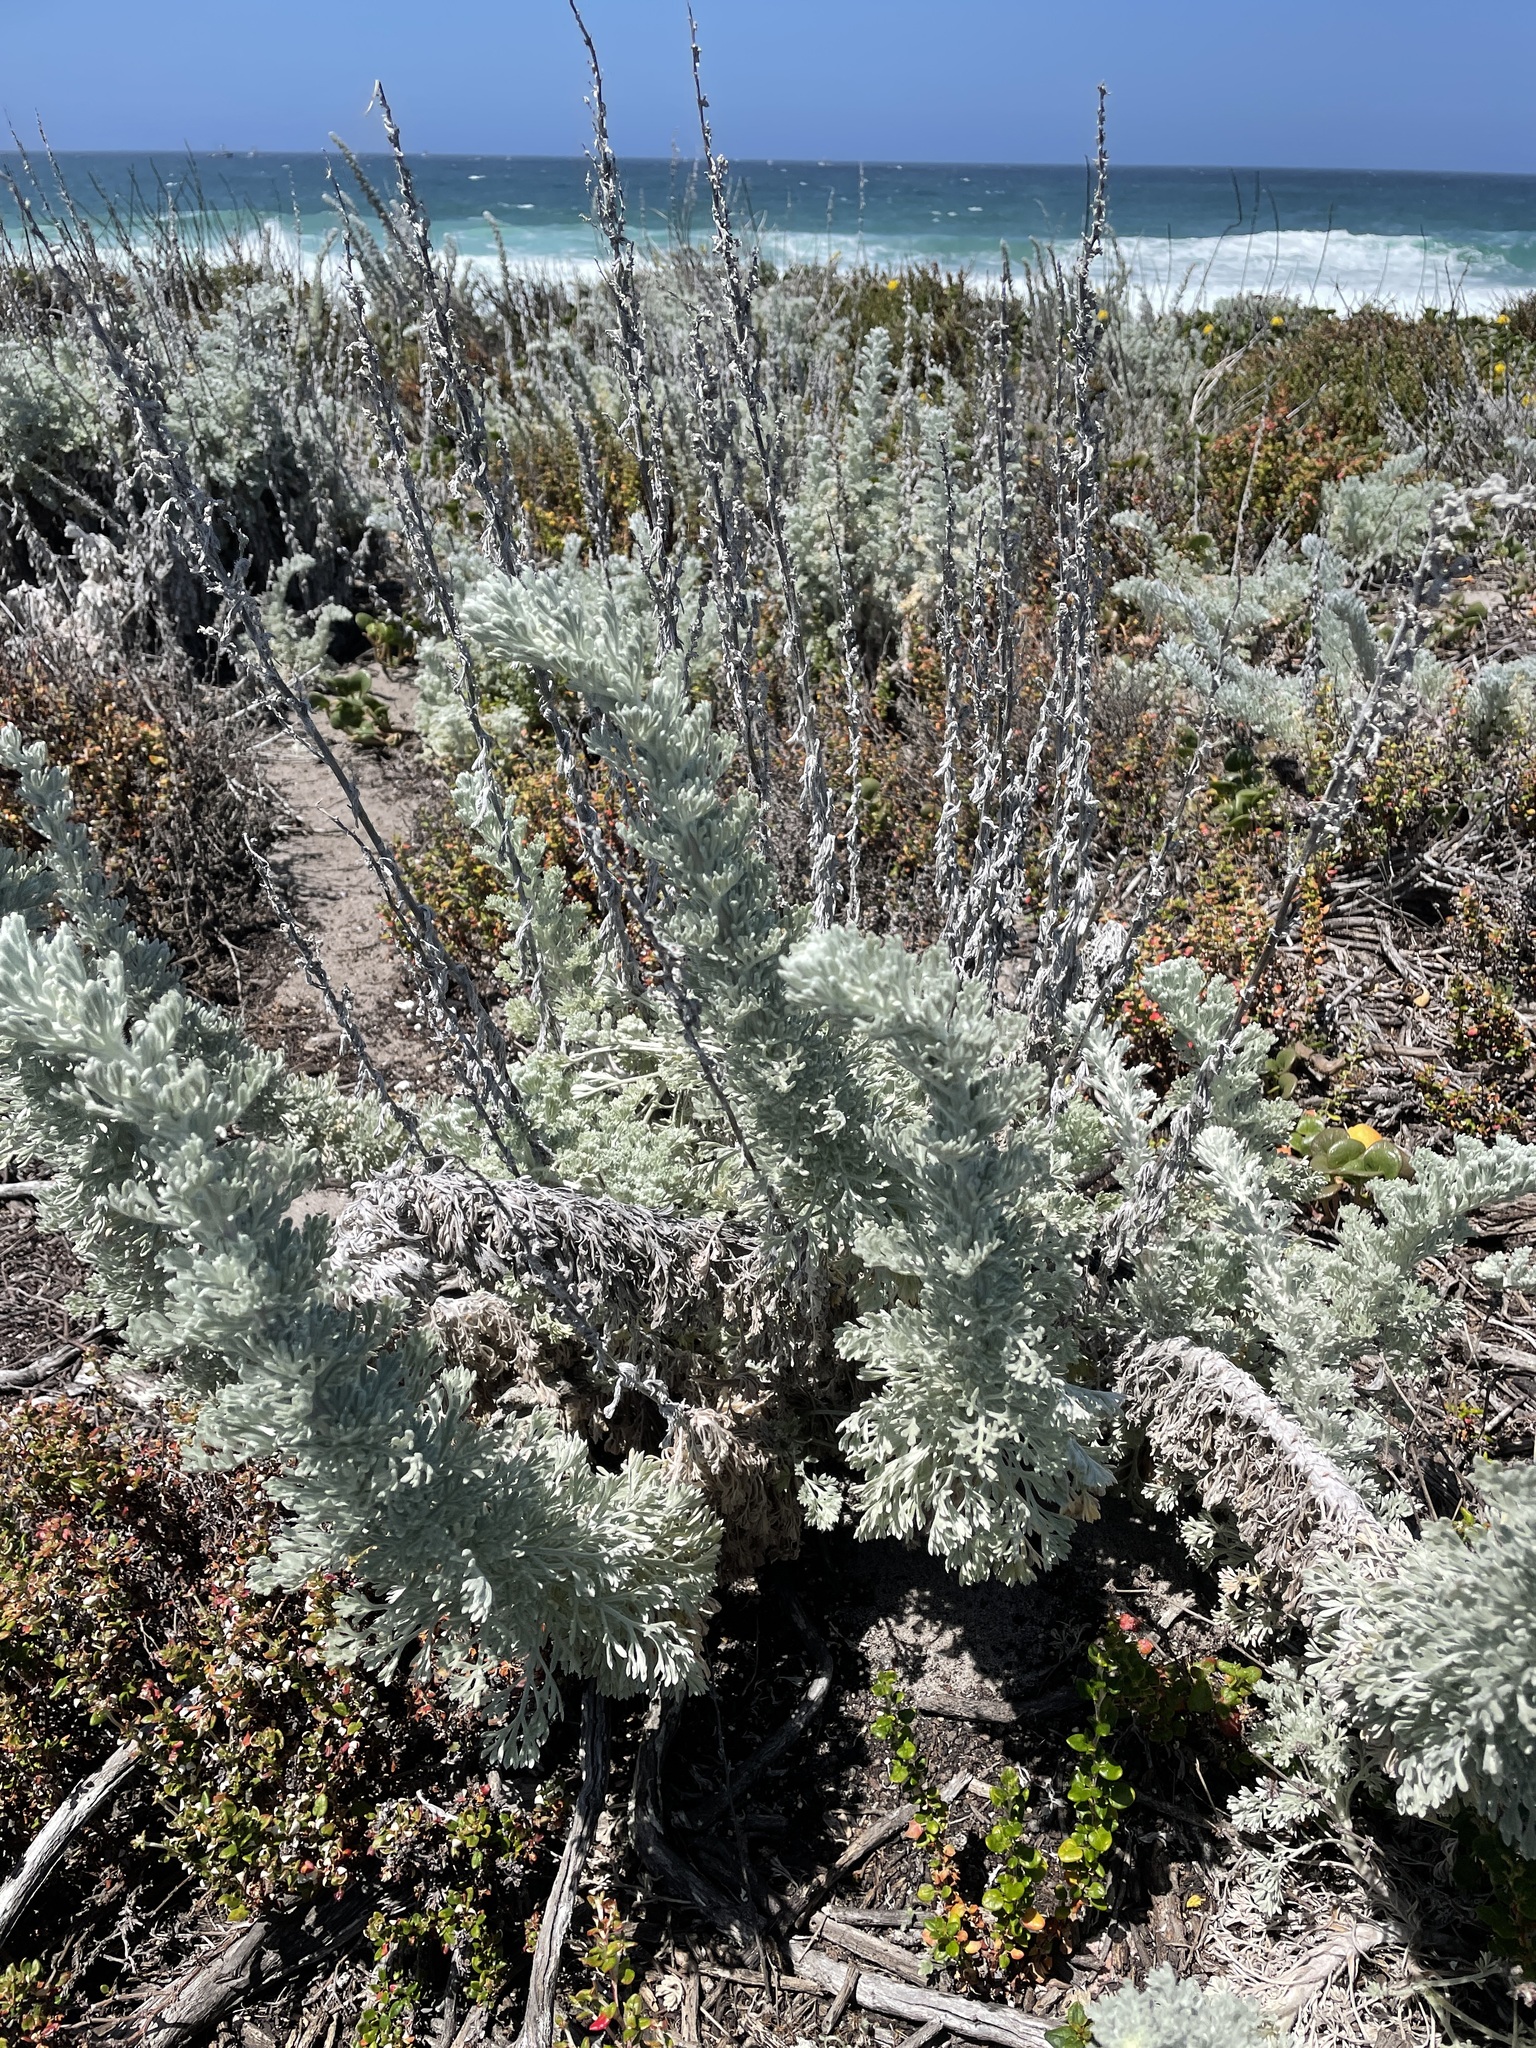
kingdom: Plantae
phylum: Tracheophyta
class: Magnoliopsida
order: Asterales
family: Asteraceae
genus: Artemisia
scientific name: Artemisia pycnocephala
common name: Coastal sagewort
